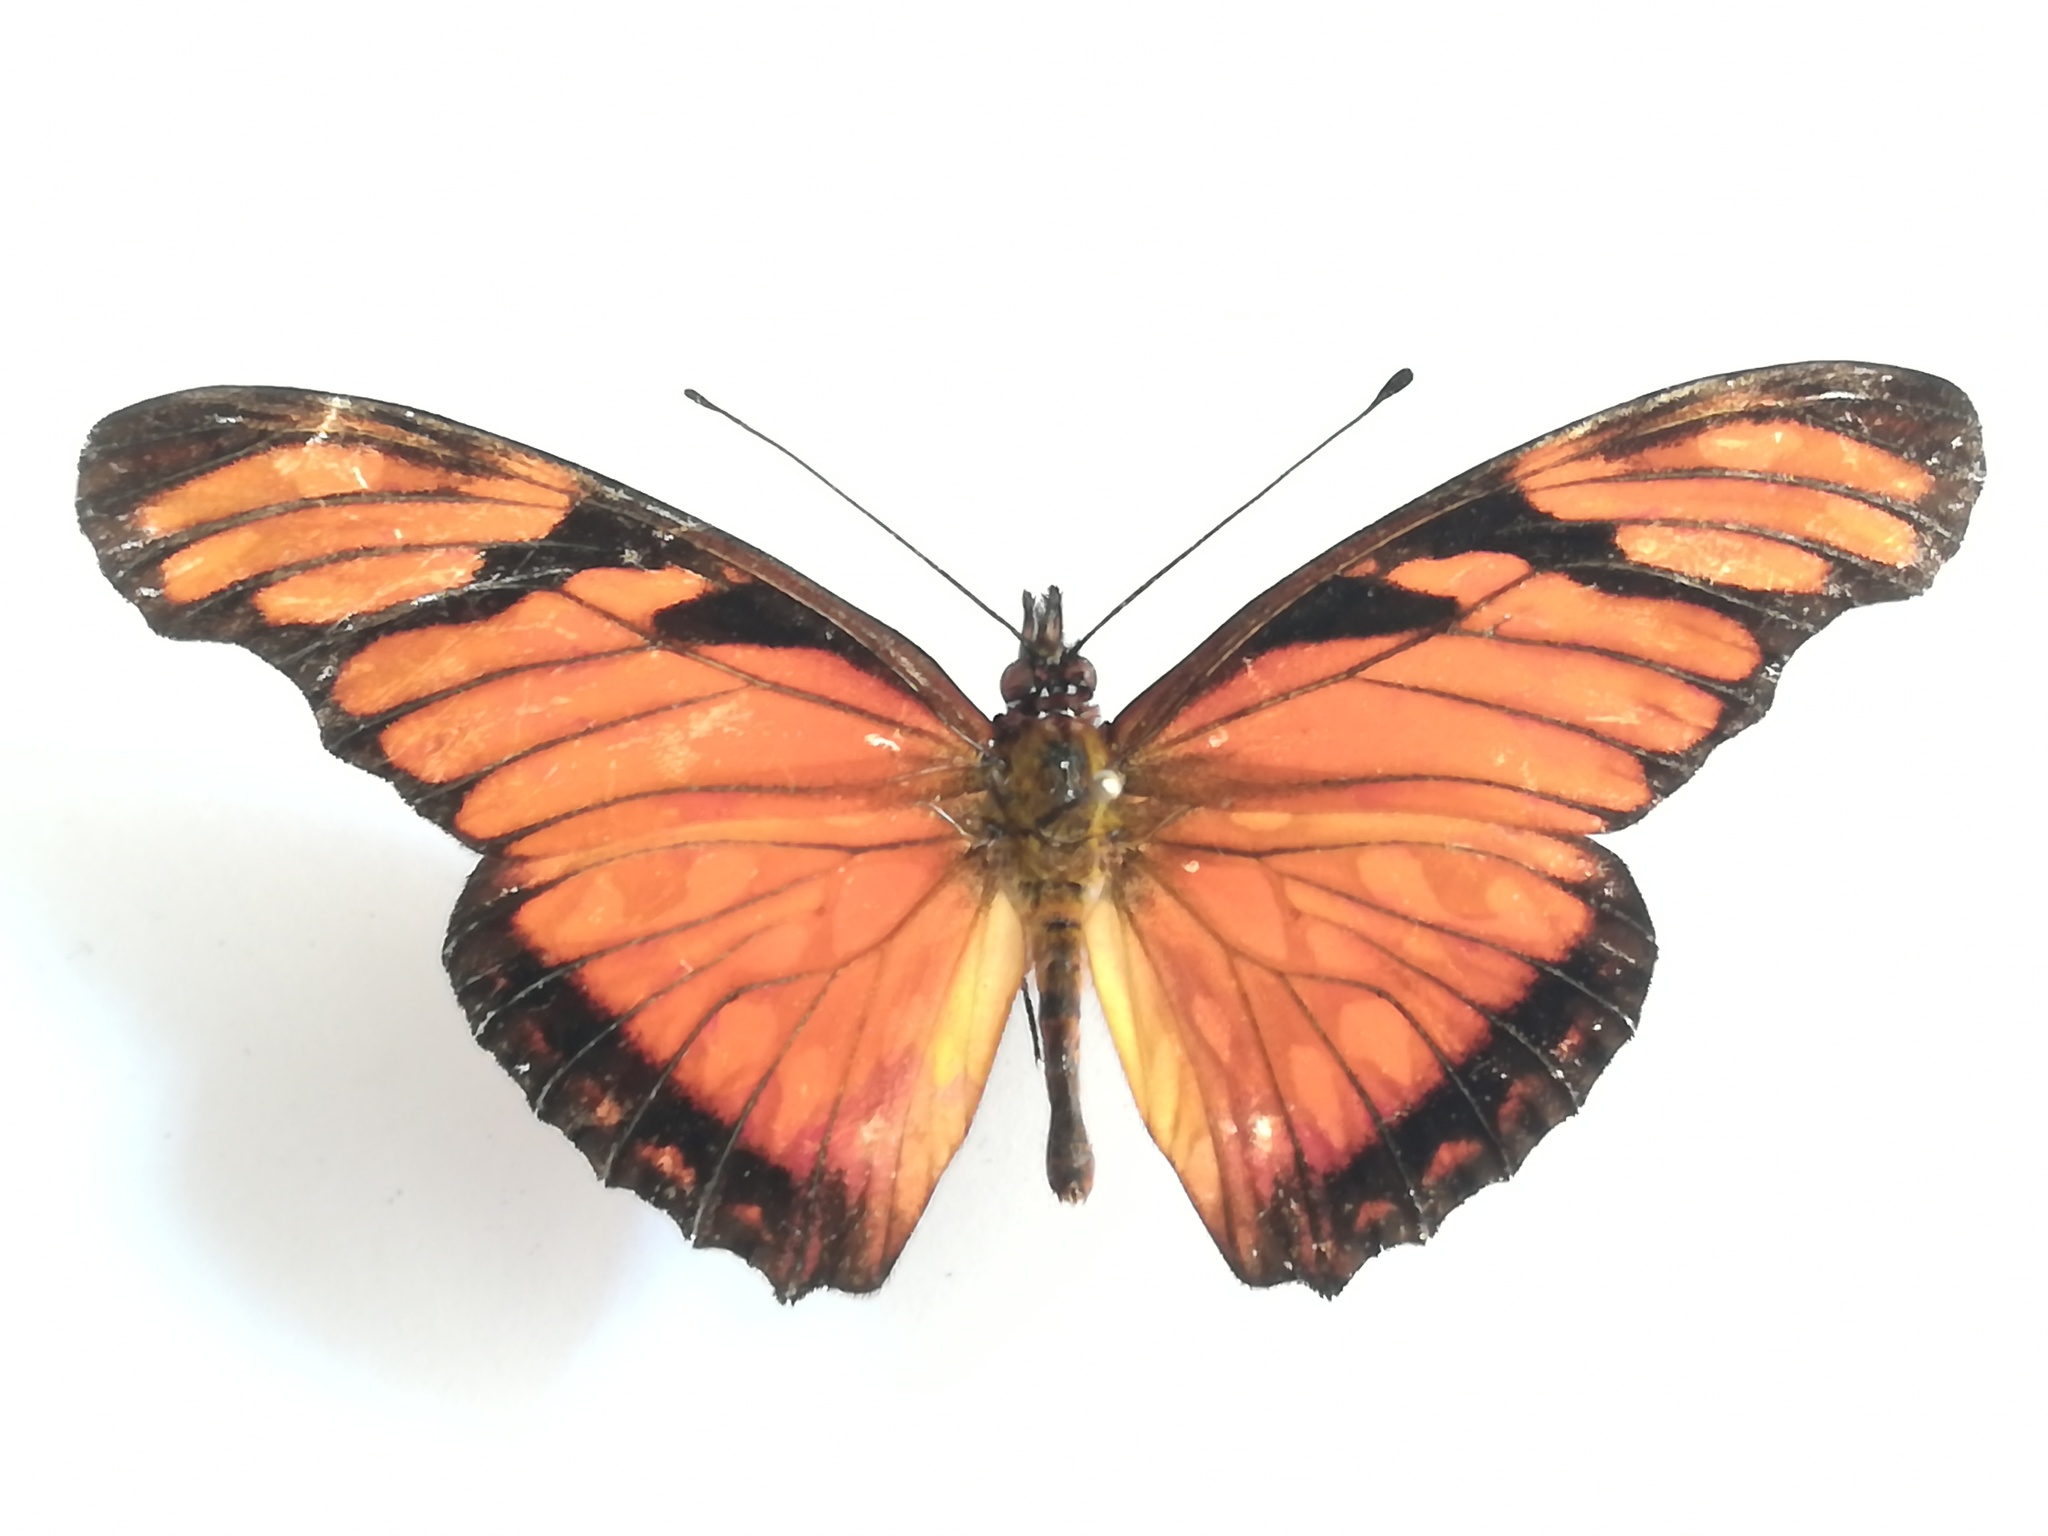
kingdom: Animalia
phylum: Arthropoda
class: Insecta
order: Lepidoptera
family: Nymphalidae
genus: Dione
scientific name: Dione juno
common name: Juno silverspot
